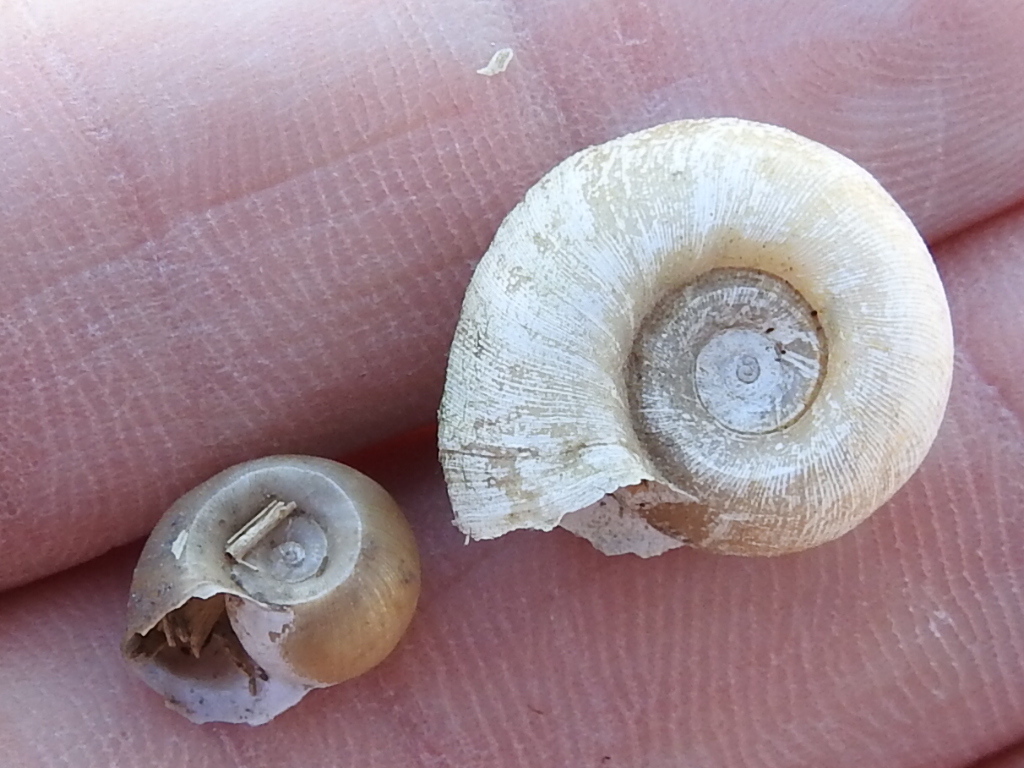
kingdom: Animalia
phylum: Mollusca
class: Gastropoda
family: Planorbidae
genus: Planorbella
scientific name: Planorbella trivolvis
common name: Marsh rams-horn
